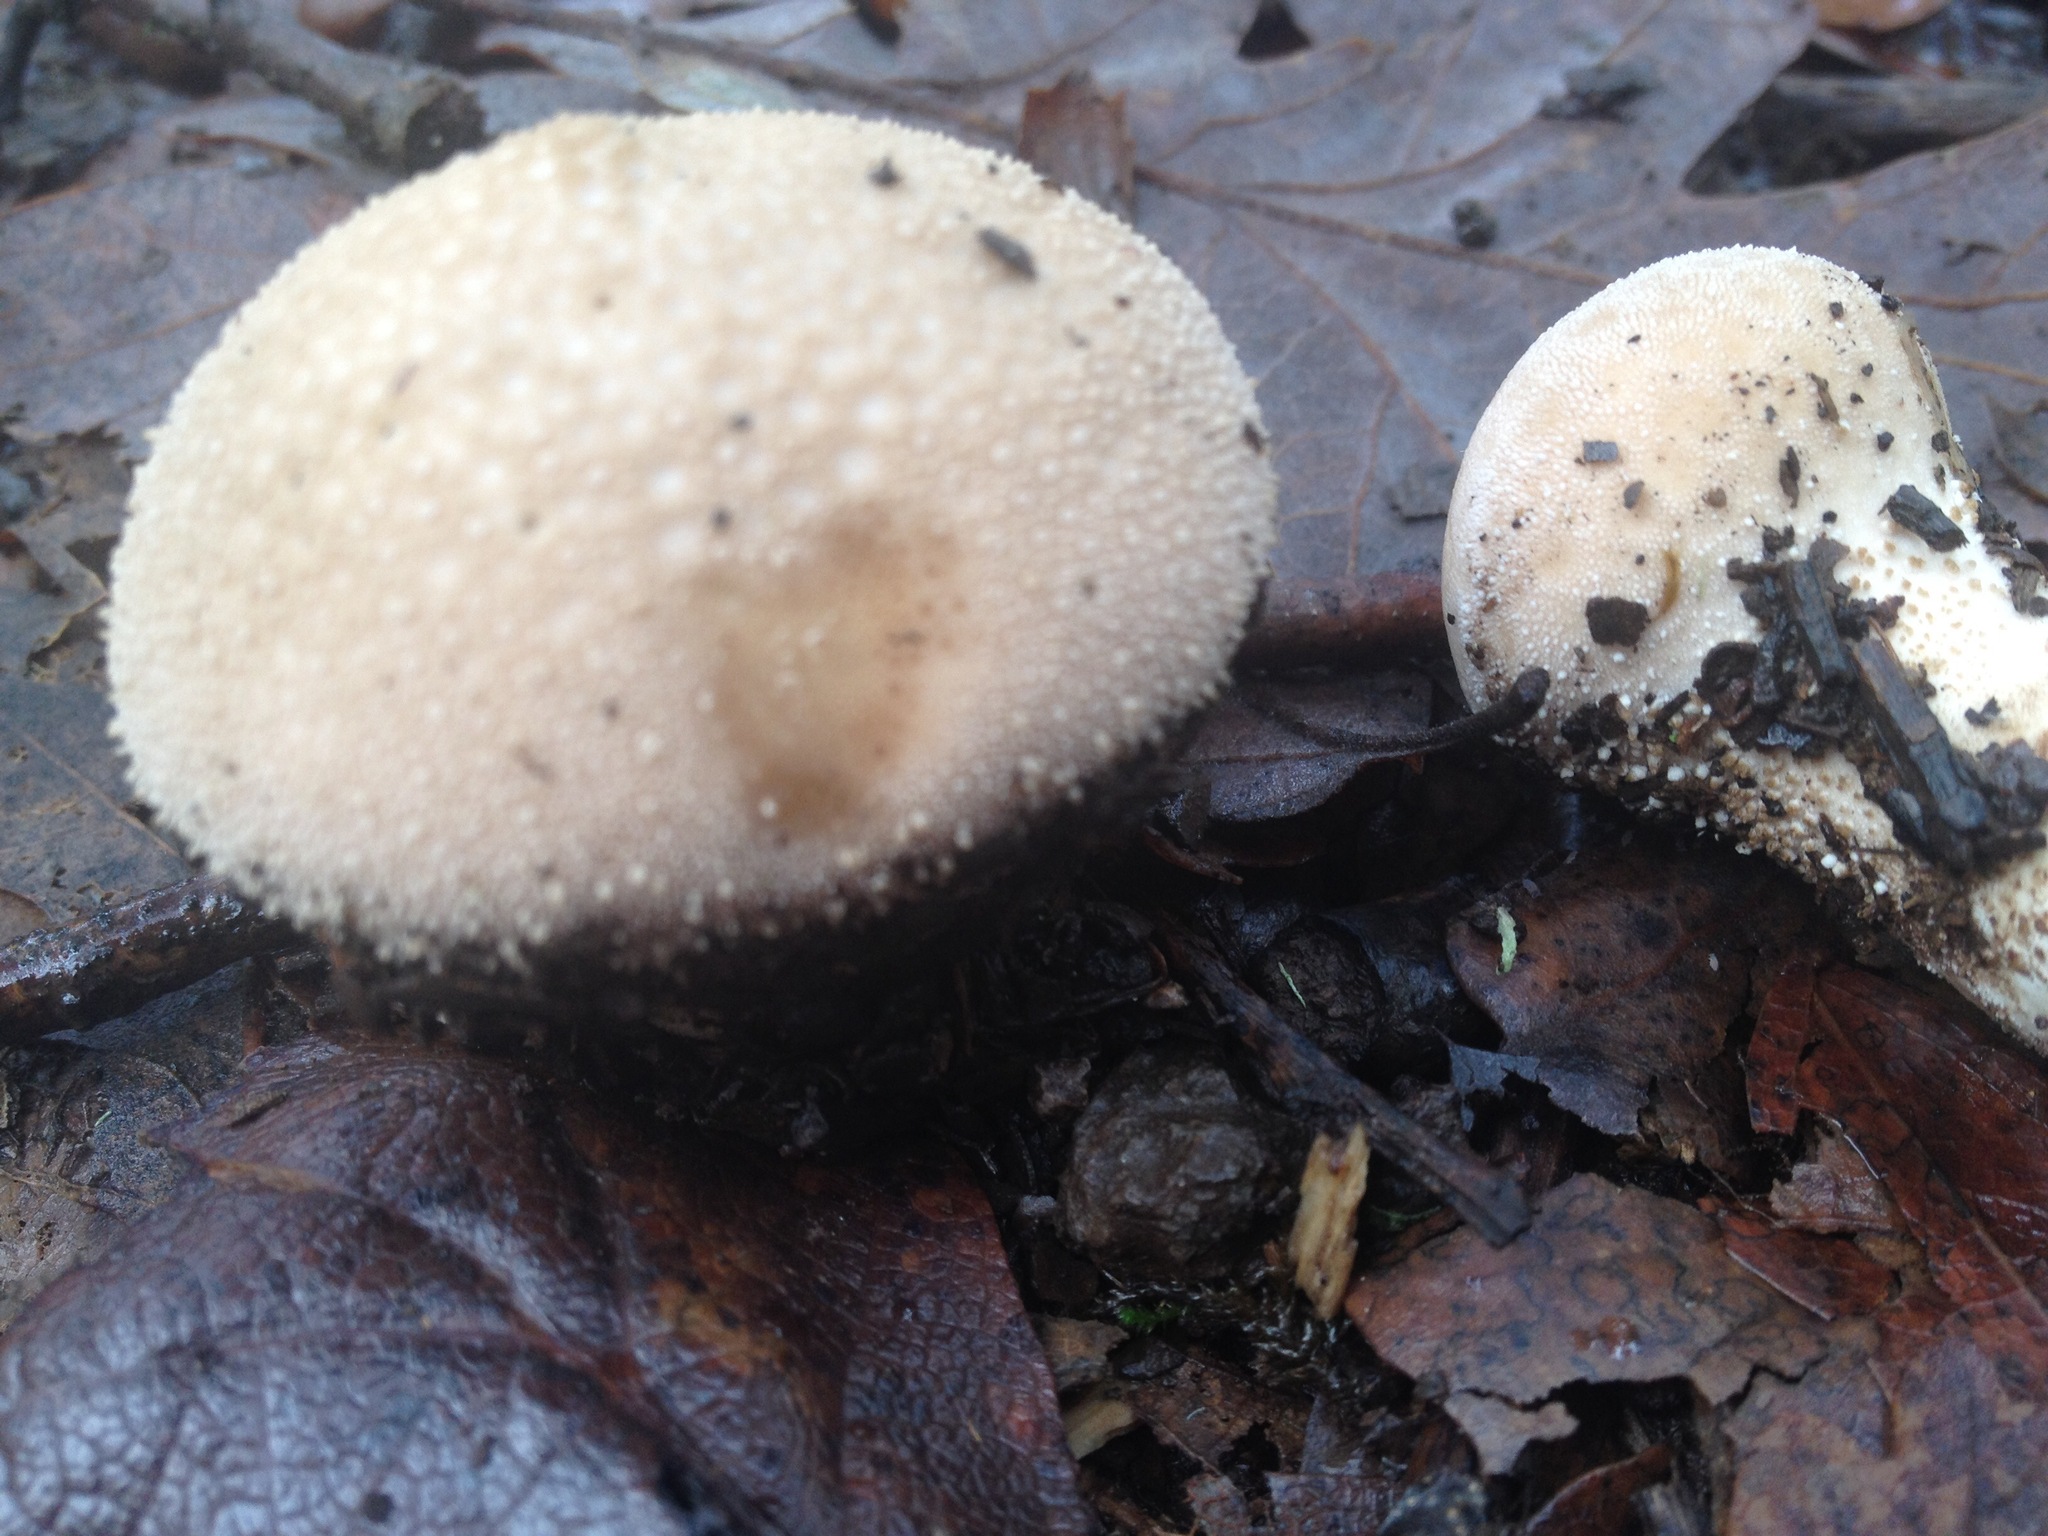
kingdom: Fungi
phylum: Basidiomycota
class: Agaricomycetes
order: Agaricales
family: Lycoperdaceae
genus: Lycoperdon
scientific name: Lycoperdon perlatum
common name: Common puffball
